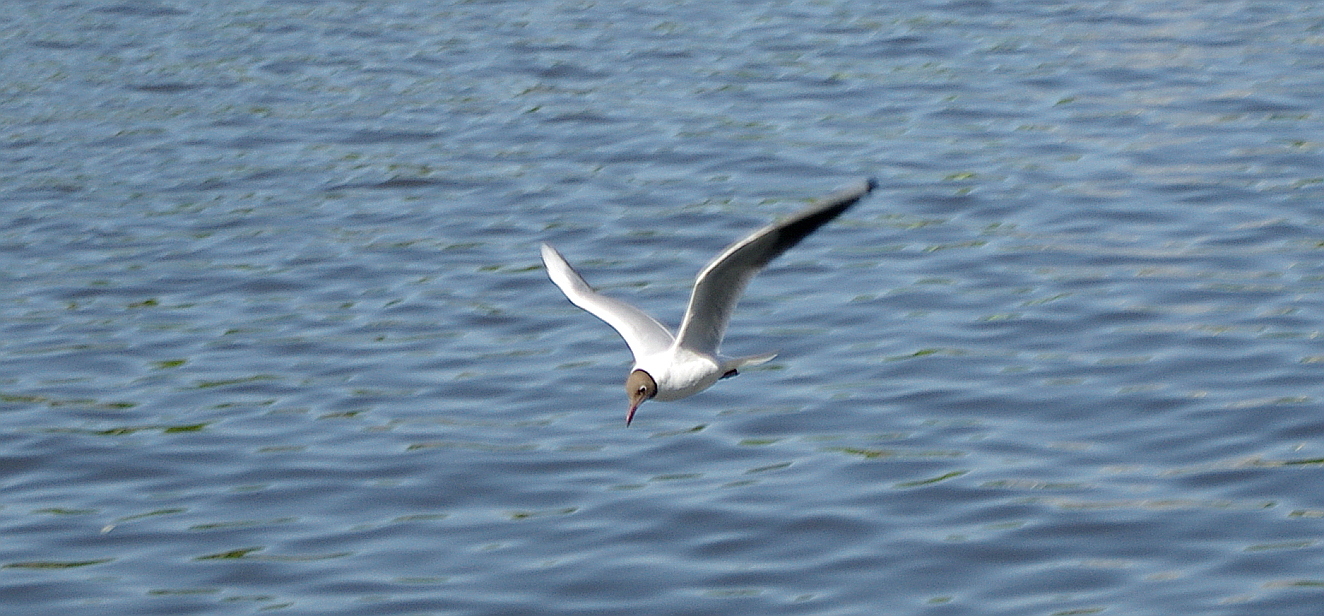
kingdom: Animalia
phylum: Chordata
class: Aves
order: Charadriiformes
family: Laridae
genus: Chroicocephalus
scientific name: Chroicocephalus ridibundus
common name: Black-headed gull
